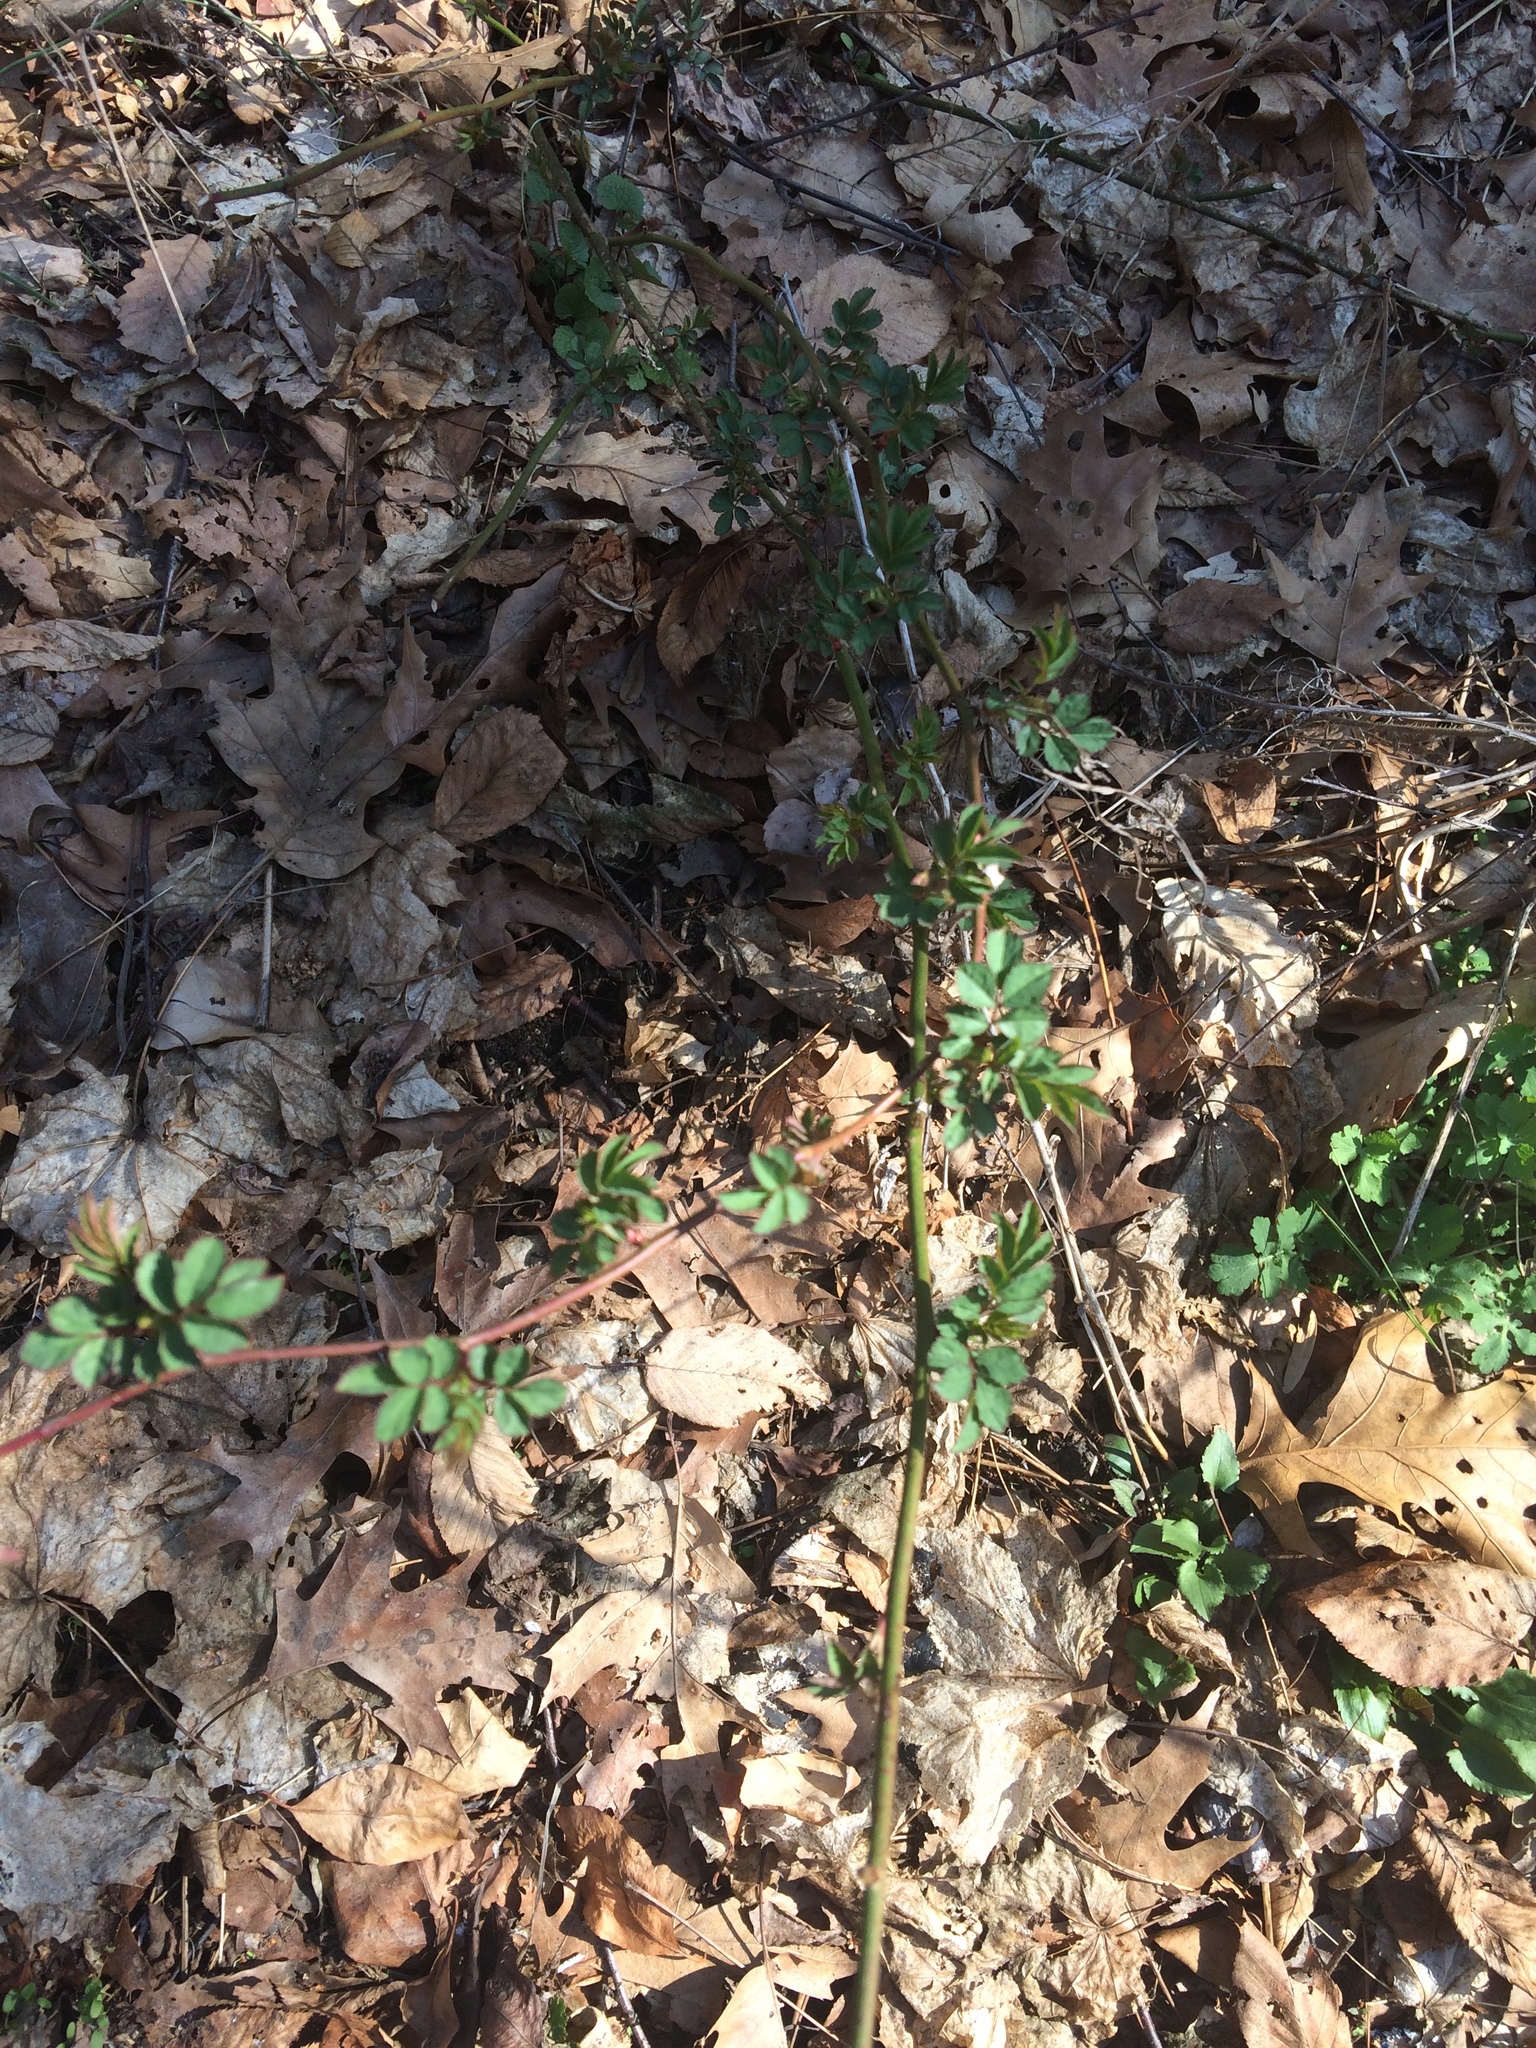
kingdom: Plantae
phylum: Tracheophyta
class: Magnoliopsida
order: Rosales
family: Rosaceae
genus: Rosa
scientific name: Rosa multiflora
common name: Multiflora rose
